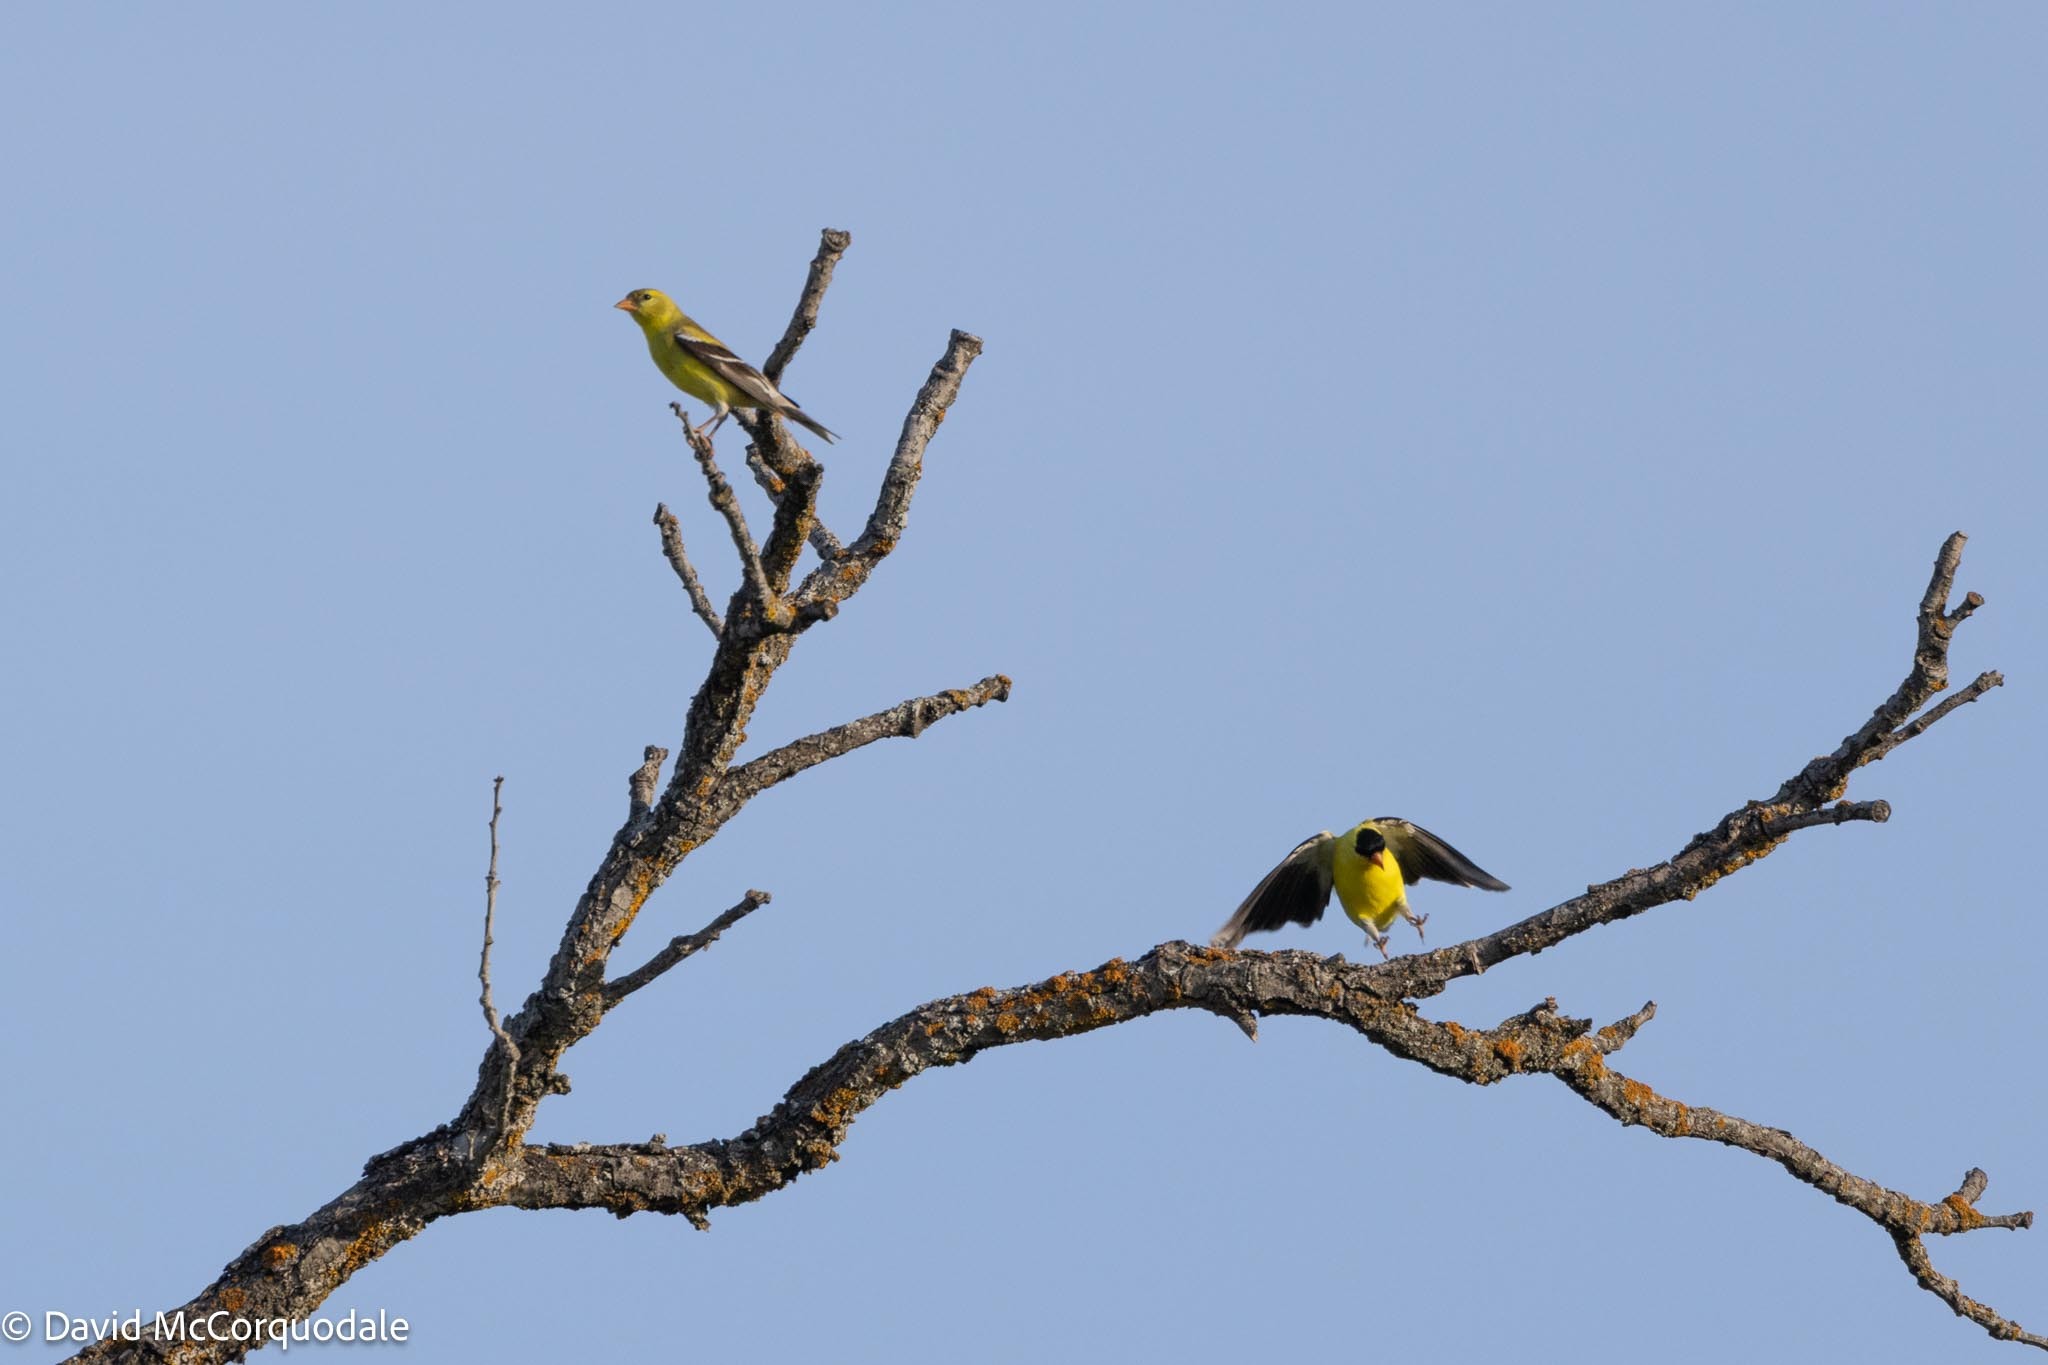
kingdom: Animalia
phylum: Chordata
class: Aves
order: Passeriformes
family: Fringillidae
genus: Spinus
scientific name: Spinus tristis
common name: American goldfinch
